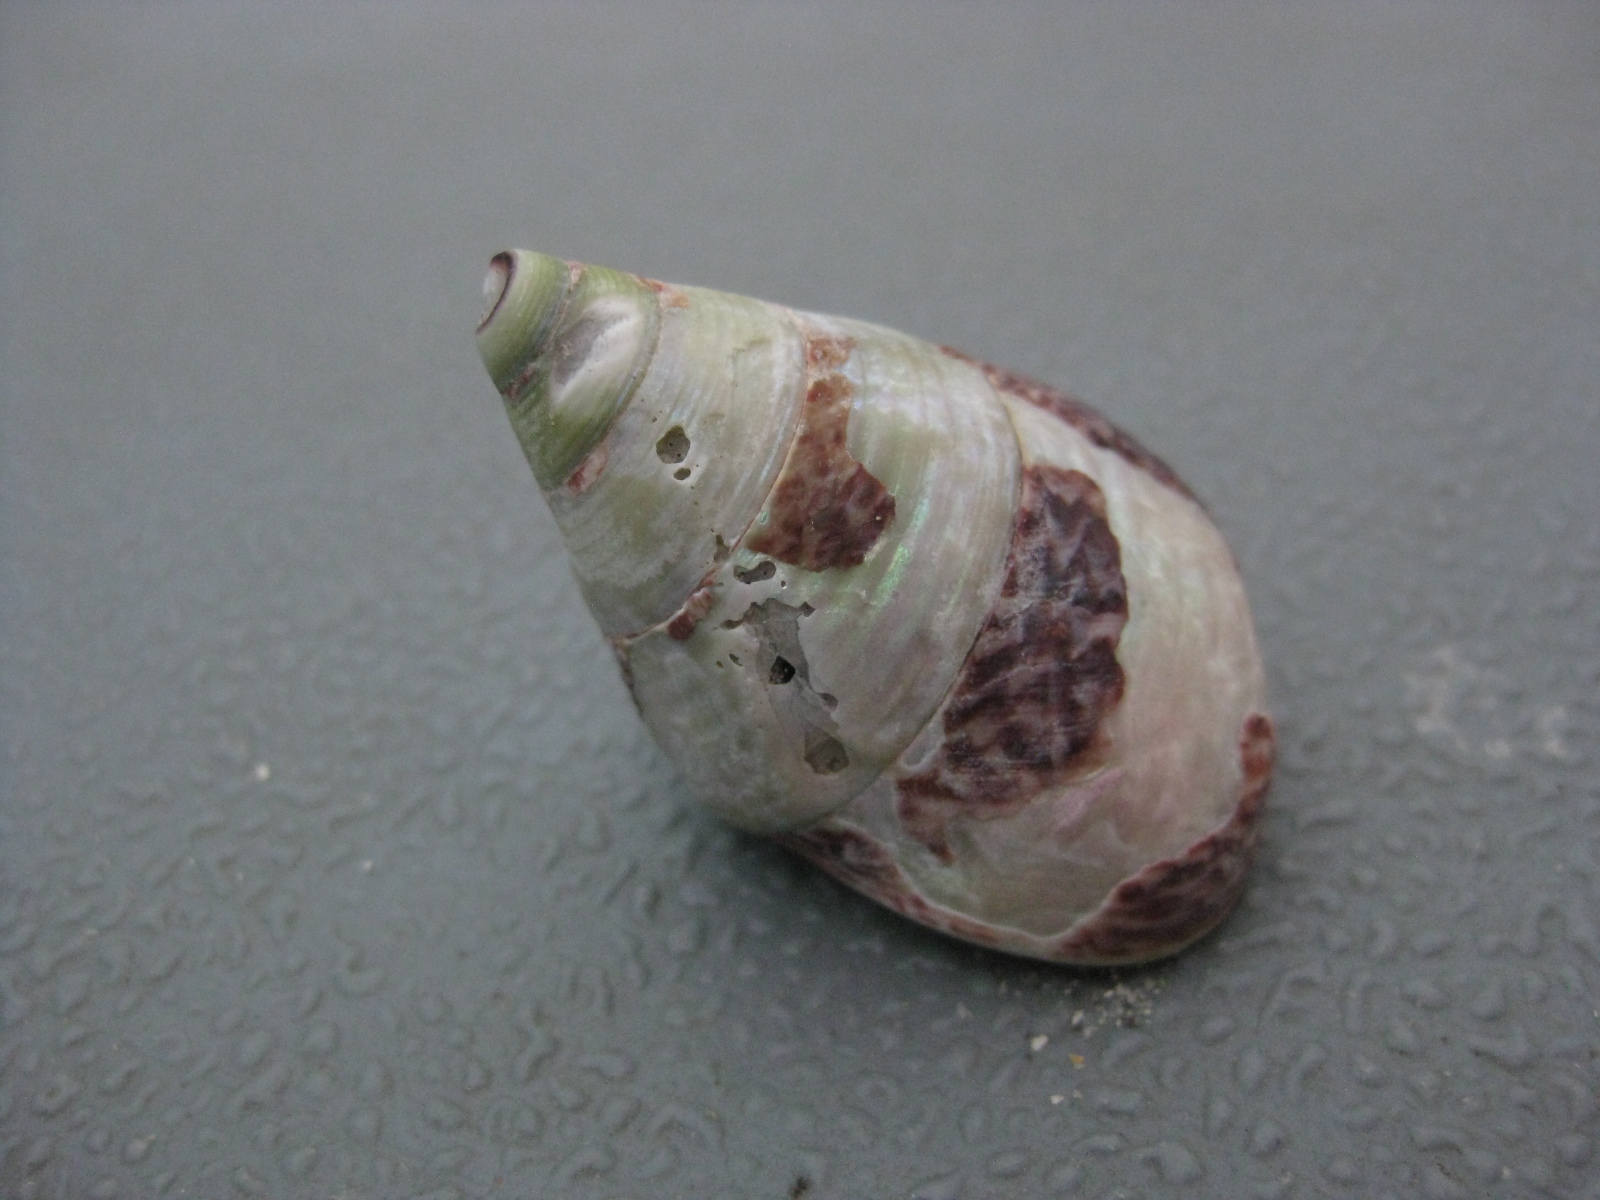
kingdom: Animalia
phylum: Mollusca
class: Gastropoda
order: Trochida
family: Trochidae
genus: Cantharidus
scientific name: Cantharidus opalus
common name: Opal jewel topsnail
